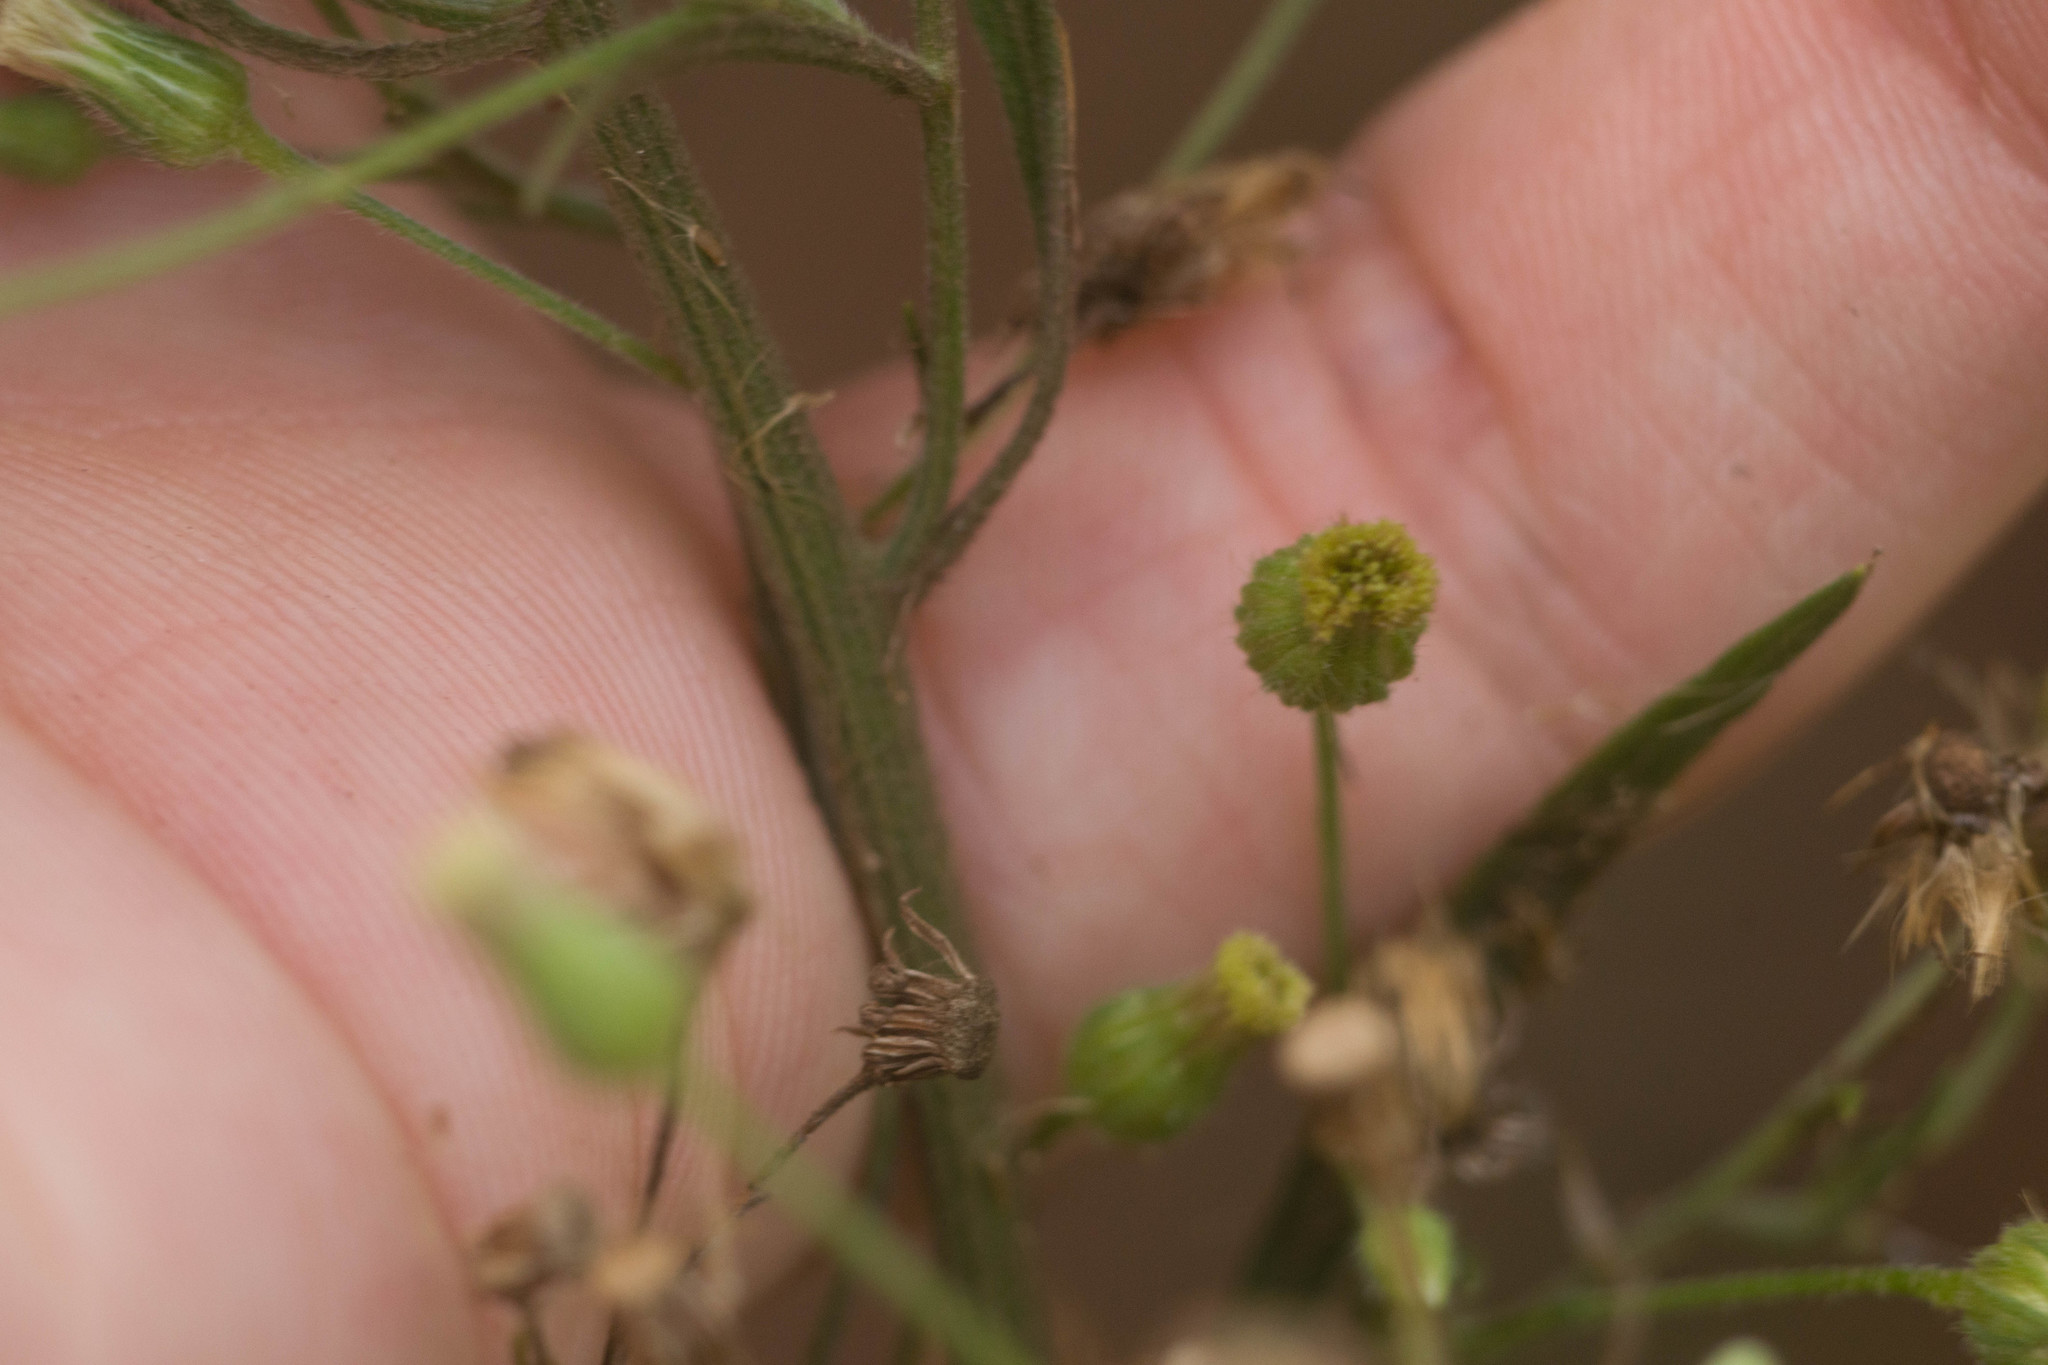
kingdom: Plantae
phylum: Tracheophyta
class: Magnoliopsida
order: Asterales
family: Asteraceae
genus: Erigeron
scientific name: Erigeron sumatrensis
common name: Daisy
